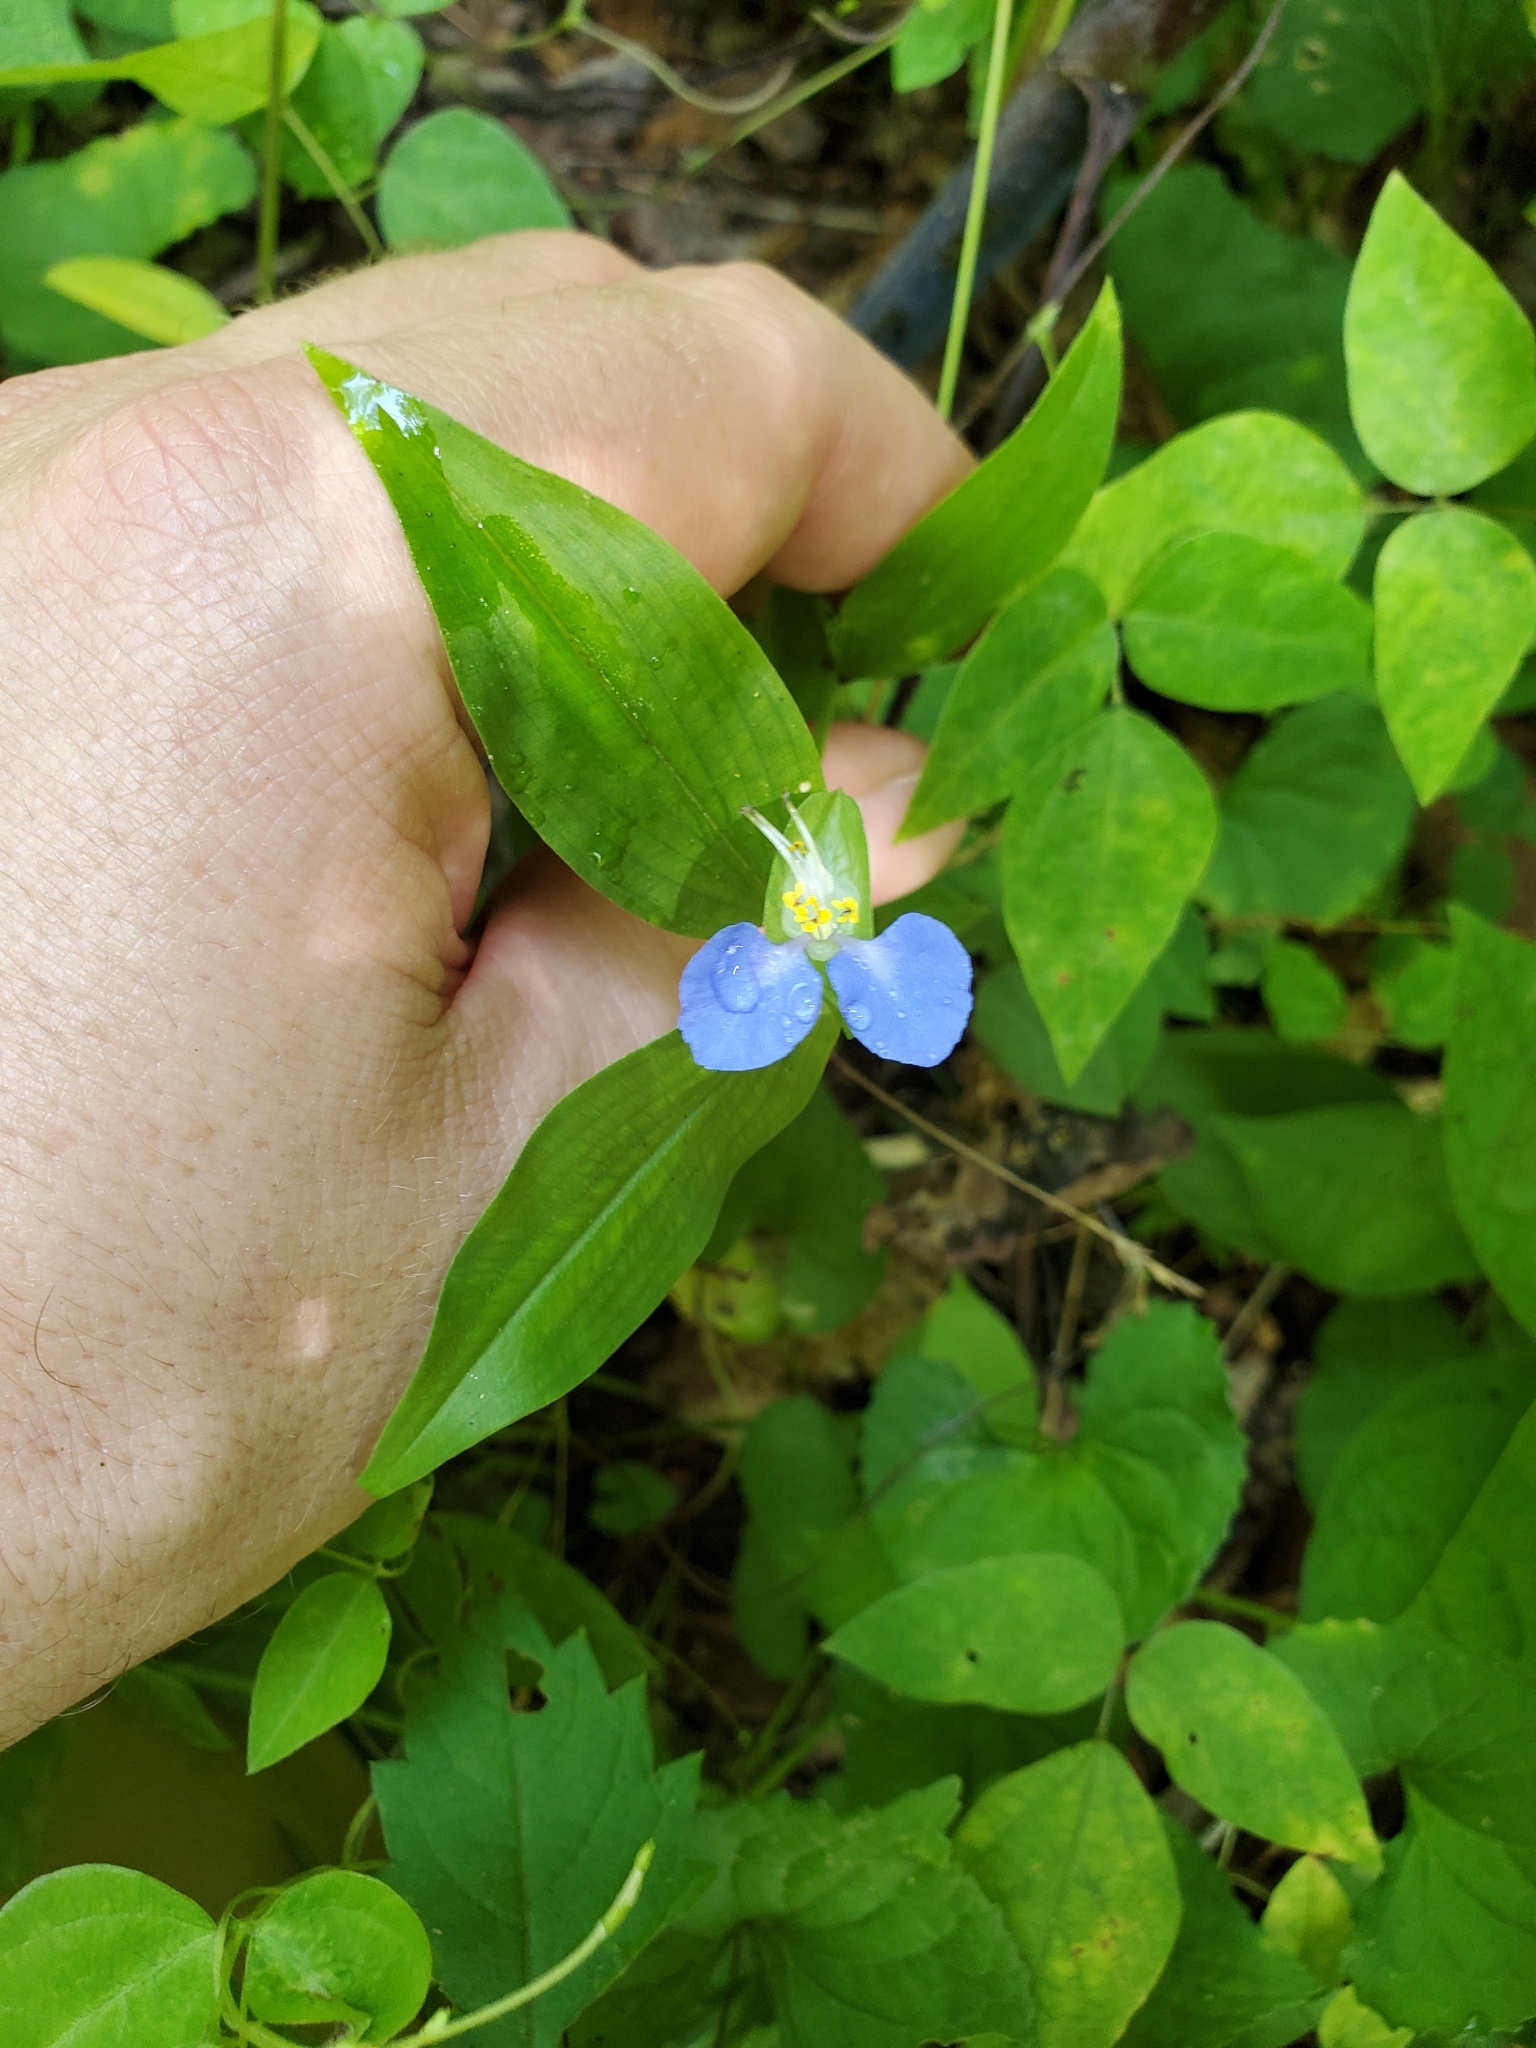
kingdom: Plantae
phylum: Tracheophyta
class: Liliopsida
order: Commelinales
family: Commelinaceae
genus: Commelina
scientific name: Commelina communis
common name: Asiatic dayflower
